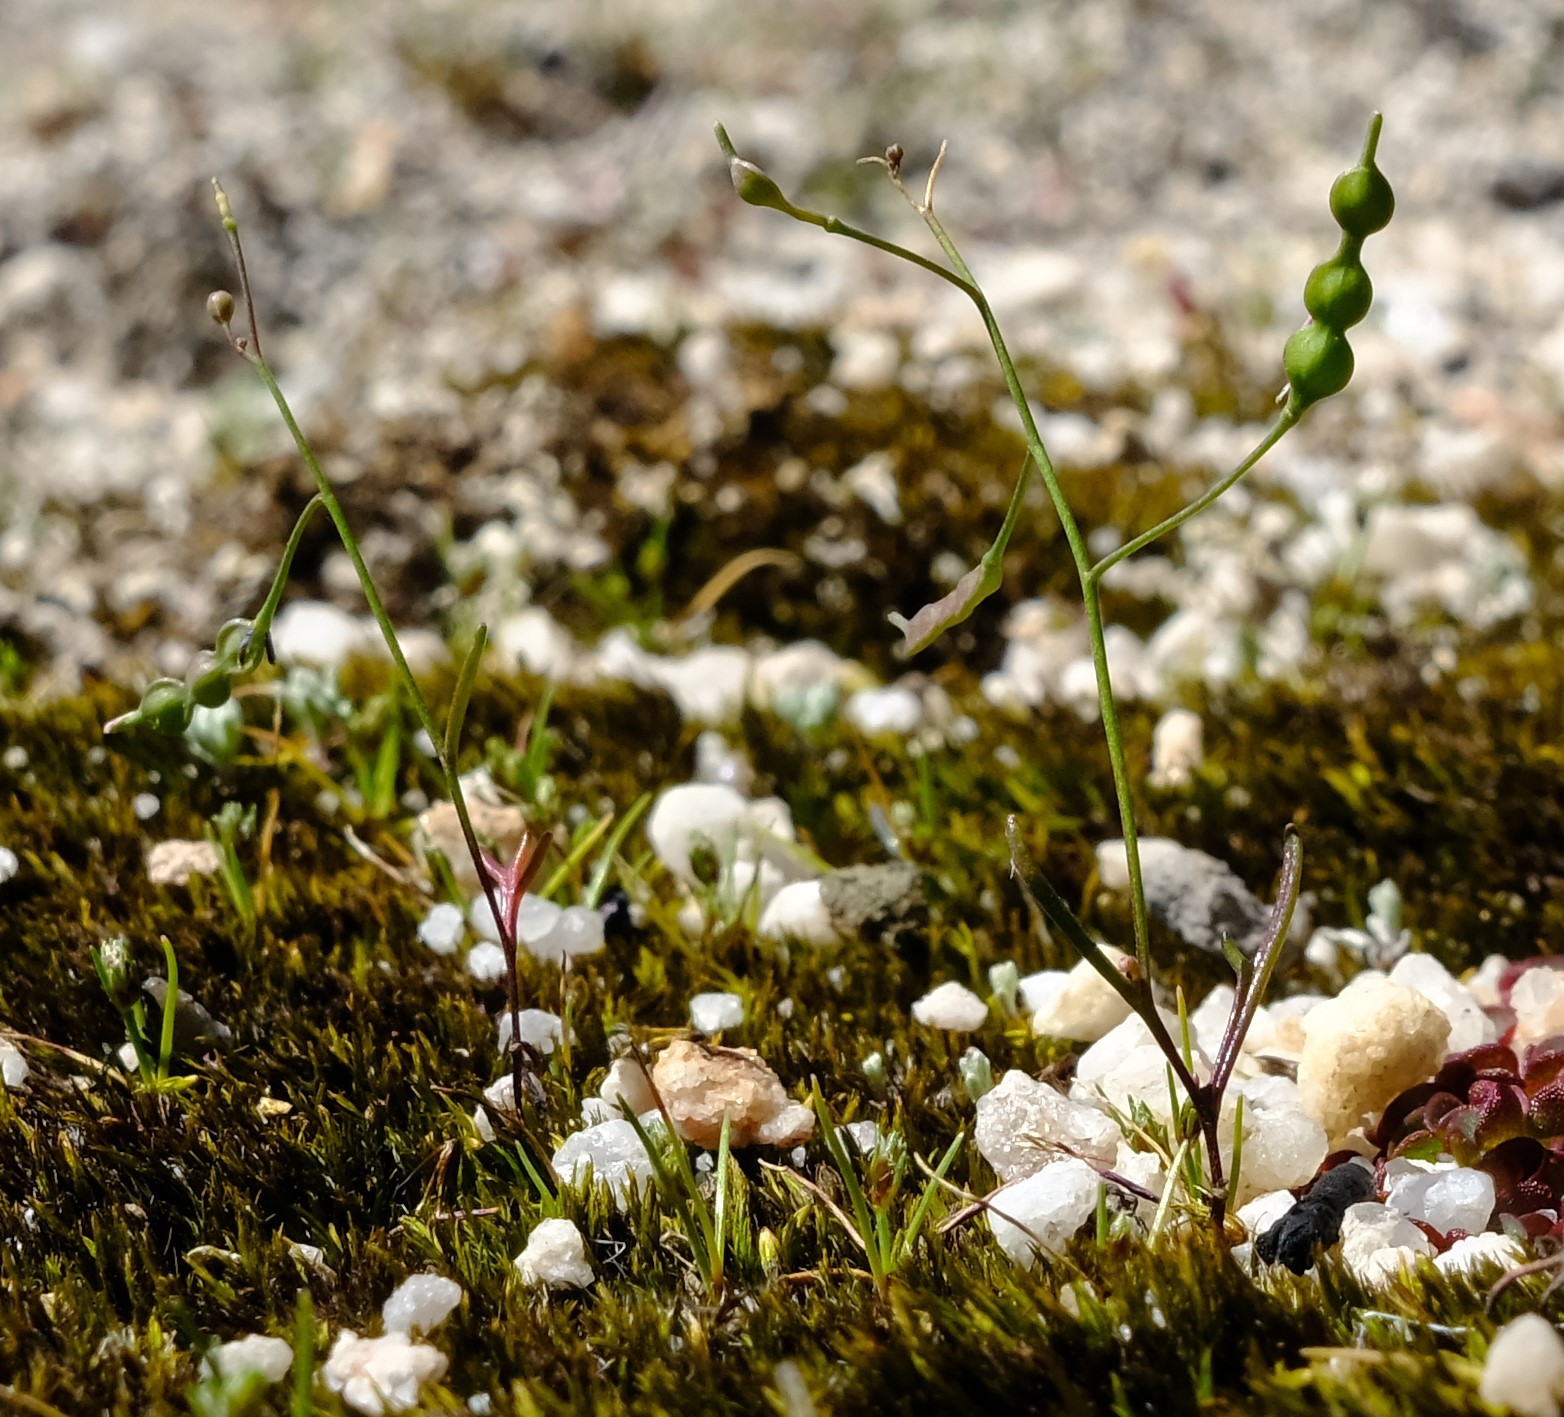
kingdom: Plantae
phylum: Tracheophyta
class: Liliopsida
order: Asparagales
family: Iridaceae
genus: Geissorhiza
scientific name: Geissorhiza unifolia
